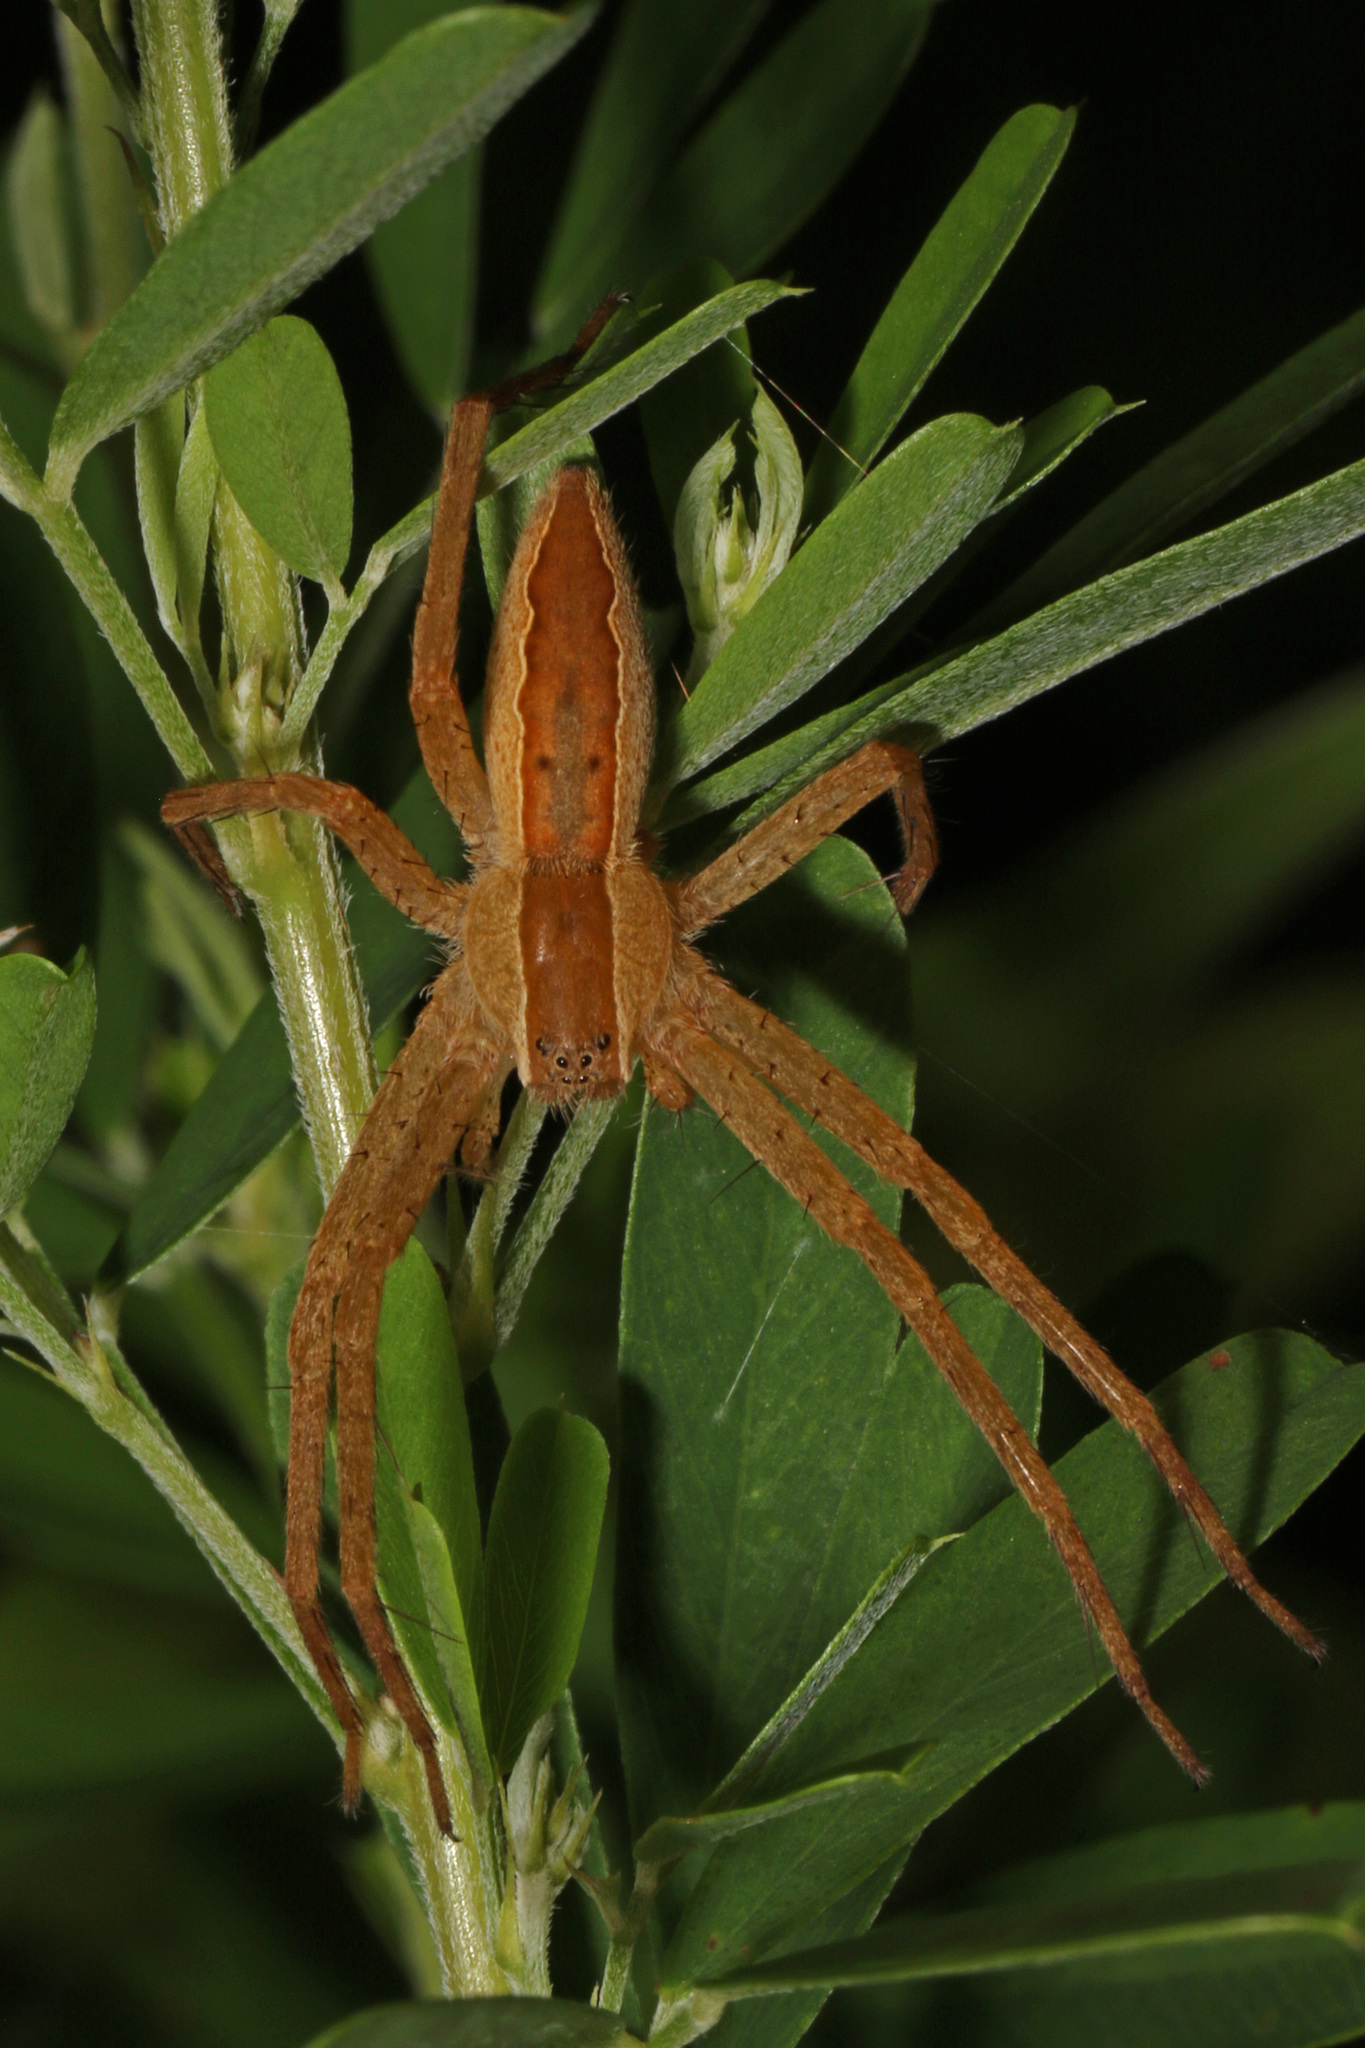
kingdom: Animalia
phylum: Arthropoda
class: Arachnida
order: Araneae
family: Pisauridae
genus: Pisaurina
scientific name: Pisaurina mira
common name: American nursery web spider
